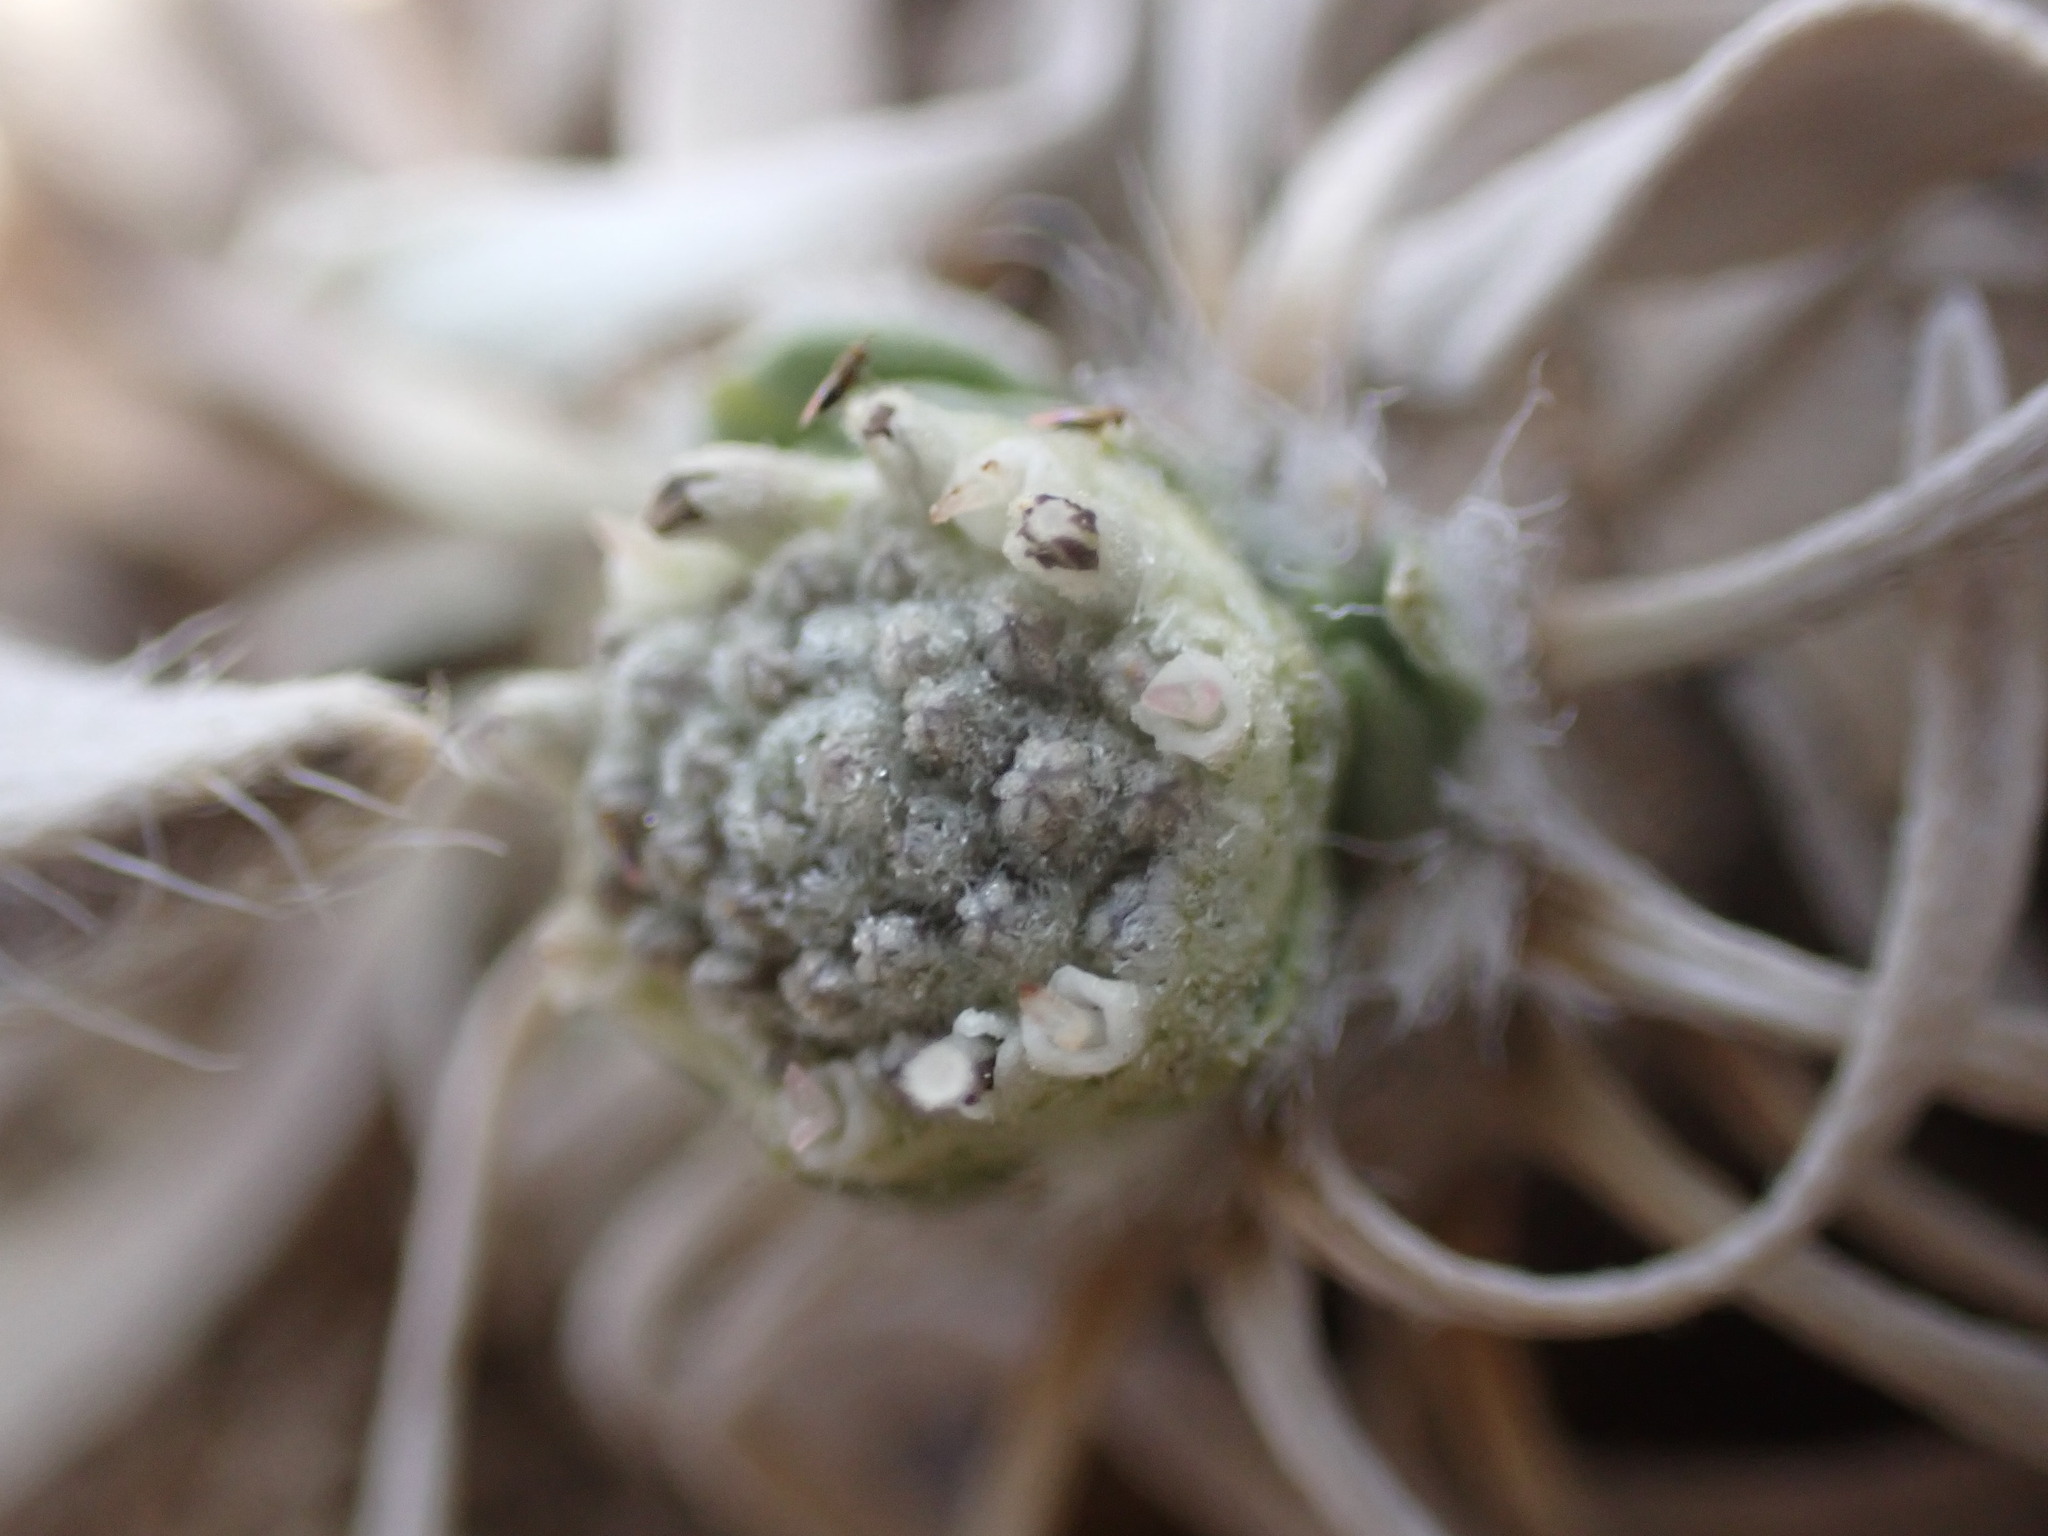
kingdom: Plantae
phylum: Tracheophyta
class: Magnoliopsida
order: Asterales
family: Asteraceae
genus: Parthenium
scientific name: Parthenium tetraneuris
